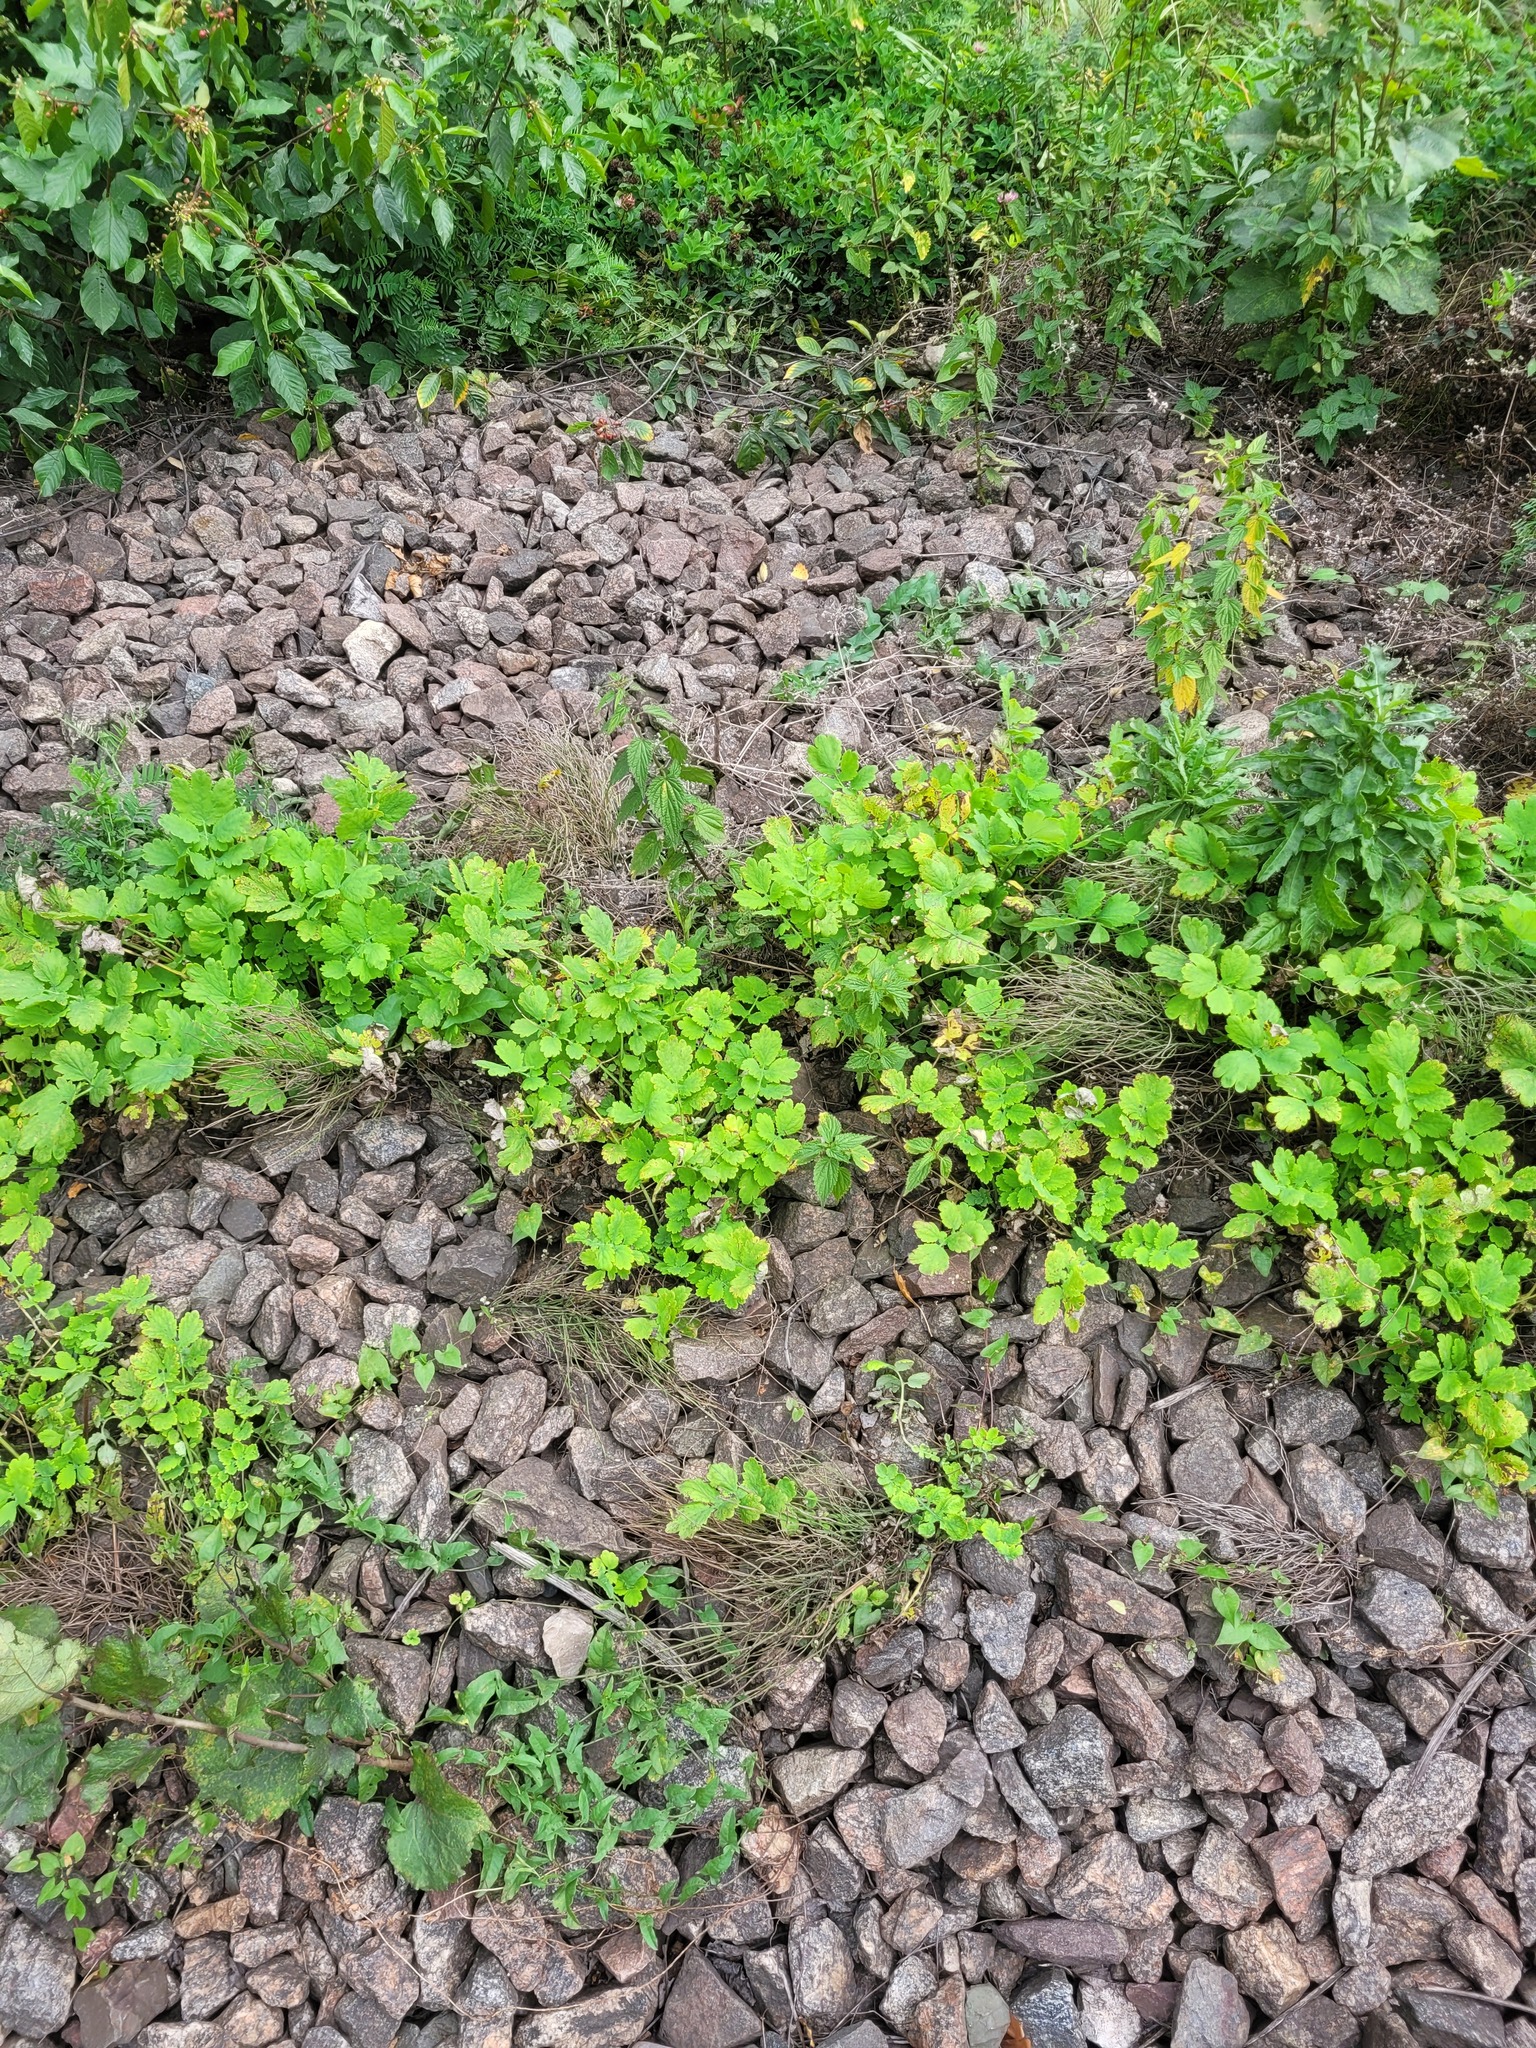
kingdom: Plantae
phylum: Tracheophyta
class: Magnoliopsida
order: Ranunculales
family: Papaveraceae
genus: Chelidonium
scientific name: Chelidonium majus
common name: Greater celandine
